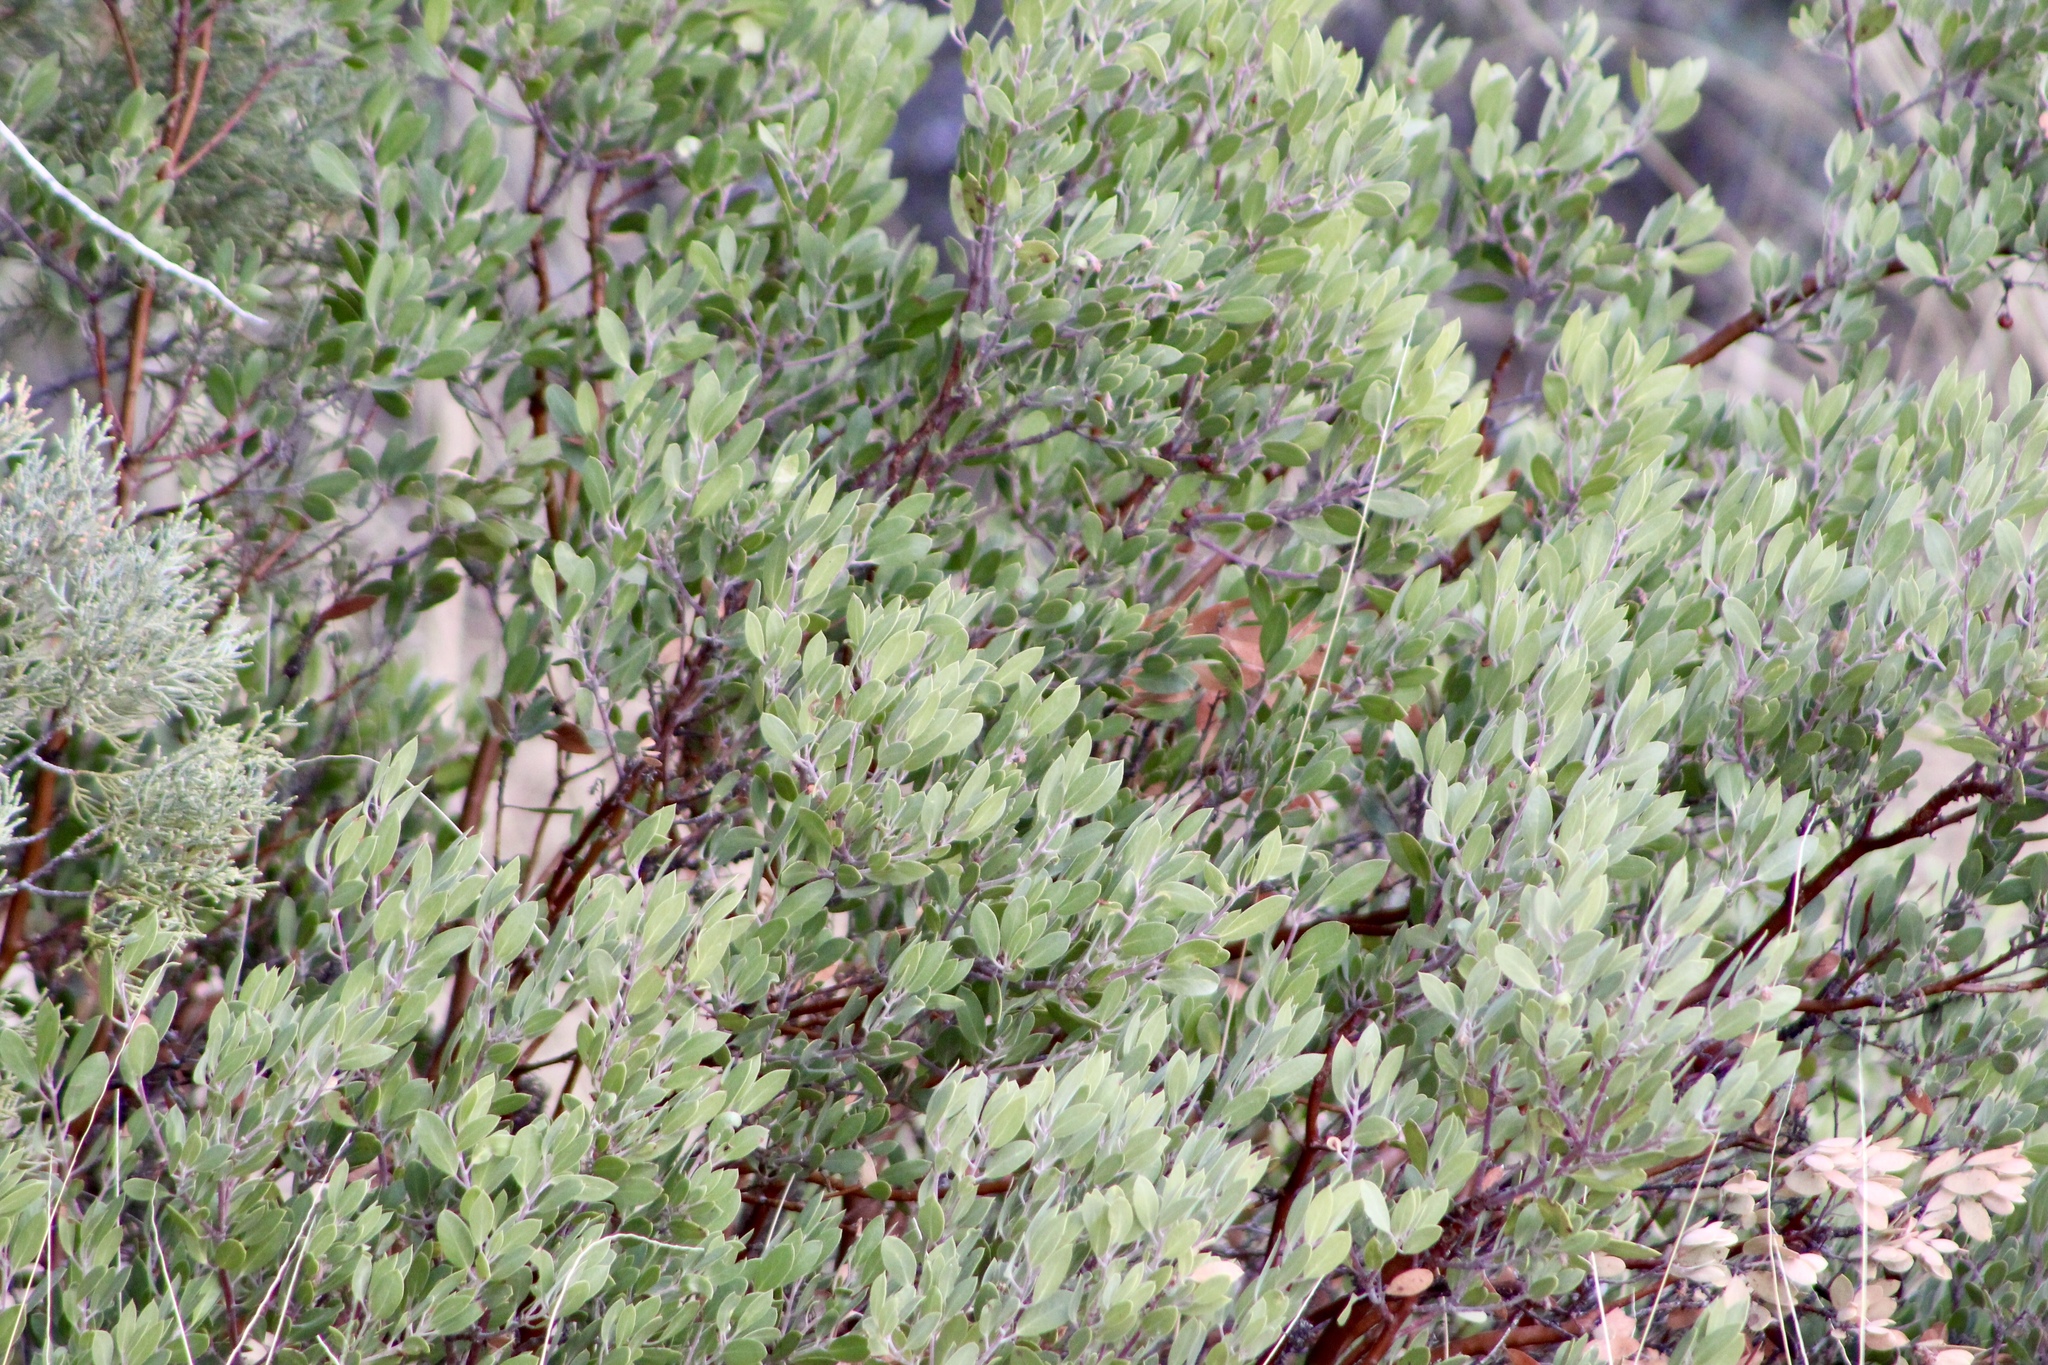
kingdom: Plantae
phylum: Tracheophyta
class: Magnoliopsida
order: Ericales
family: Ericaceae
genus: Arctostaphylos
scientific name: Arctostaphylos pungens
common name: Mexican manzanita
